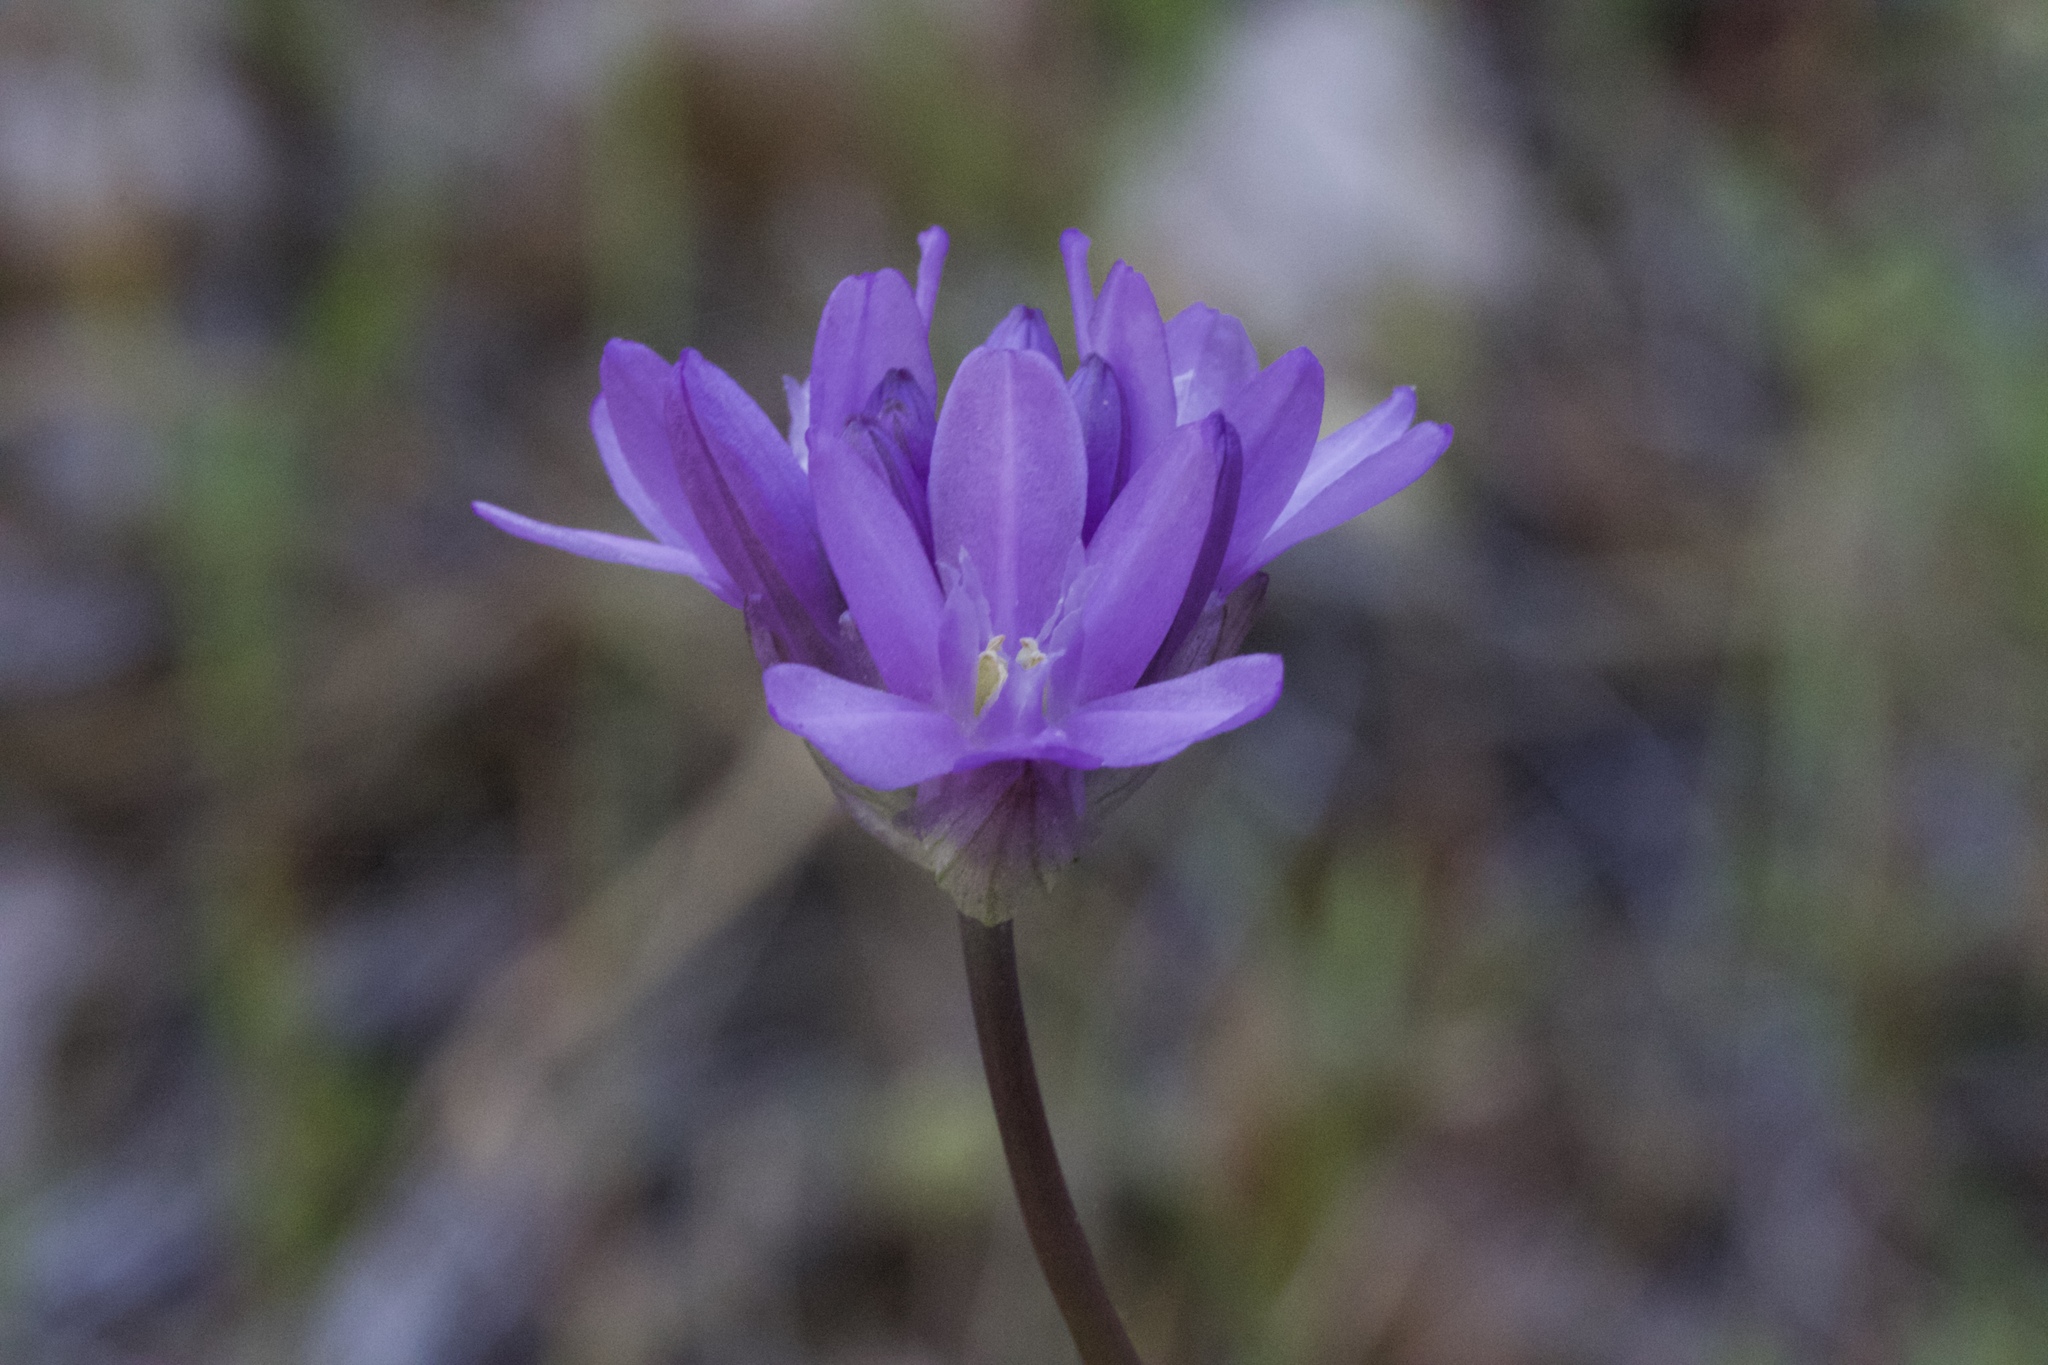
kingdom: Plantae
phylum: Tracheophyta
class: Liliopsida
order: Asparagales
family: Asparagaceae
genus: Dichelostemma
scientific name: Dichelostemma congestum
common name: Fork-tooth ookow
